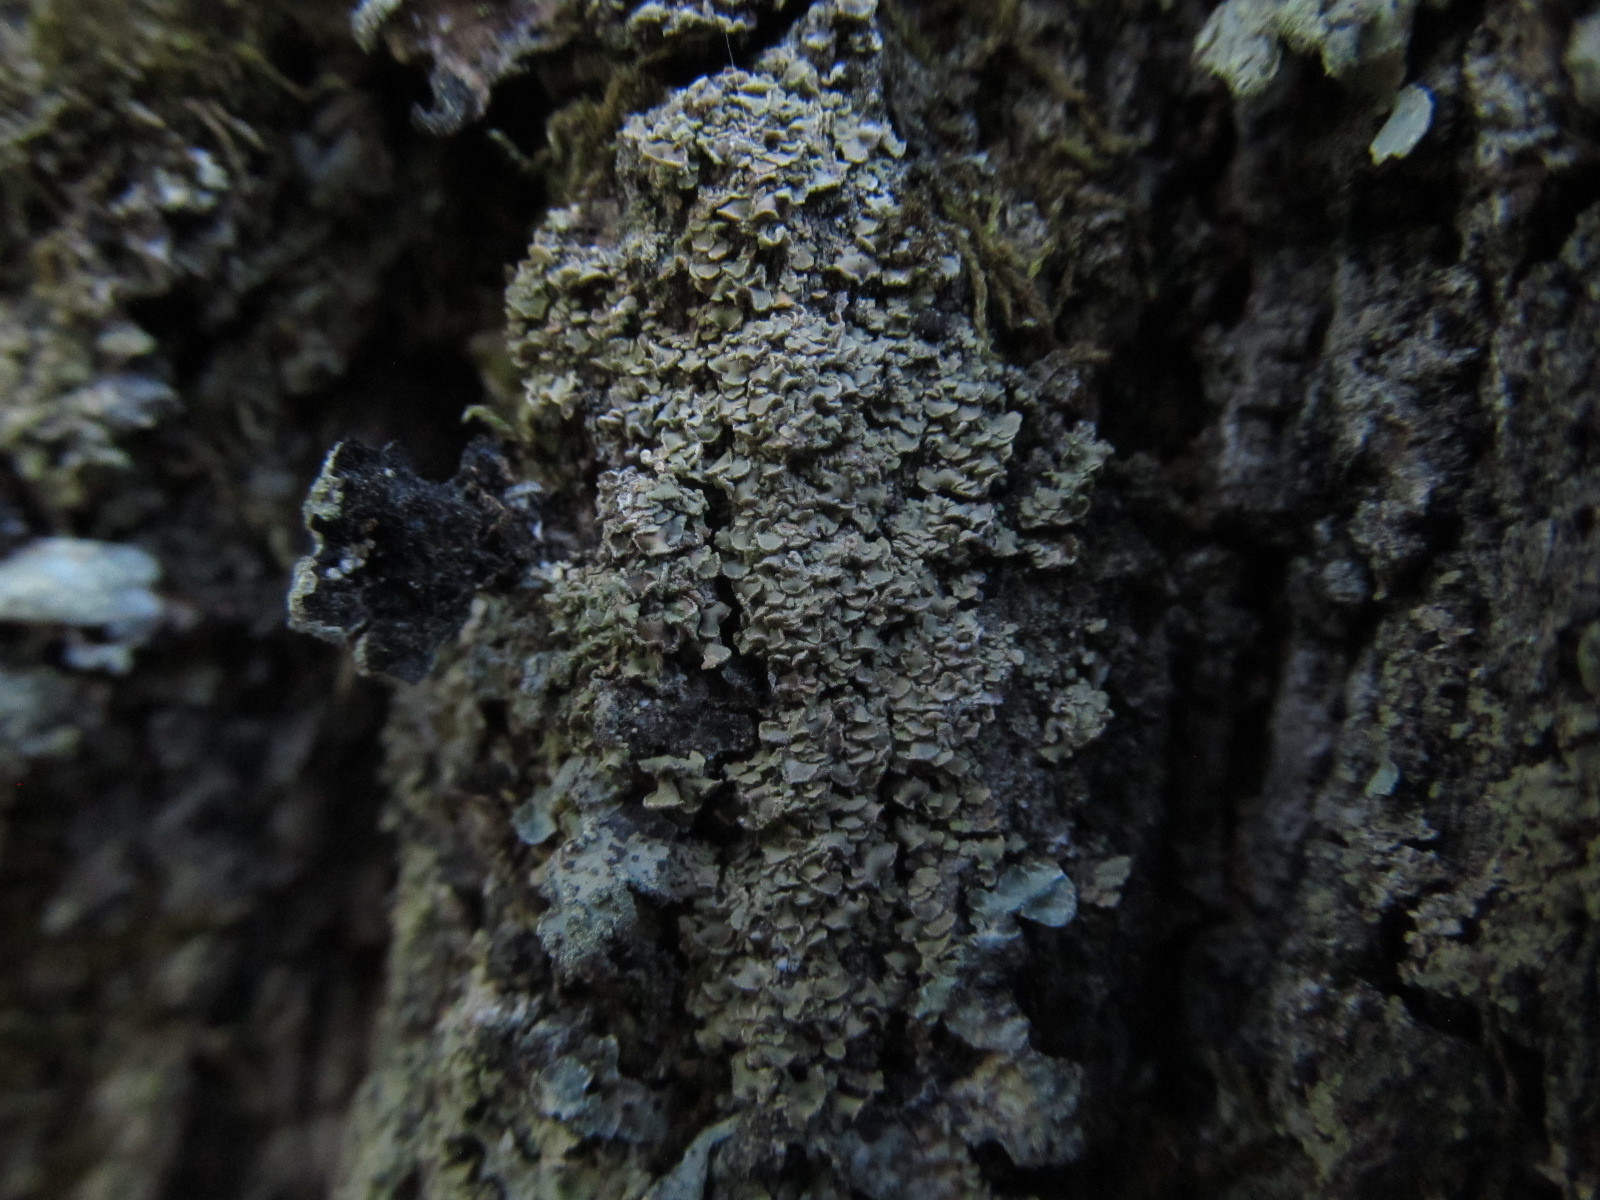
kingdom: Fungi
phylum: Ascomycota
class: Lecanoromycetes
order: Umbilicariales
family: Ophioparmaceae
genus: Hypocenomyce
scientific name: Hypocenomyce scalaris
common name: Common clam lichen
